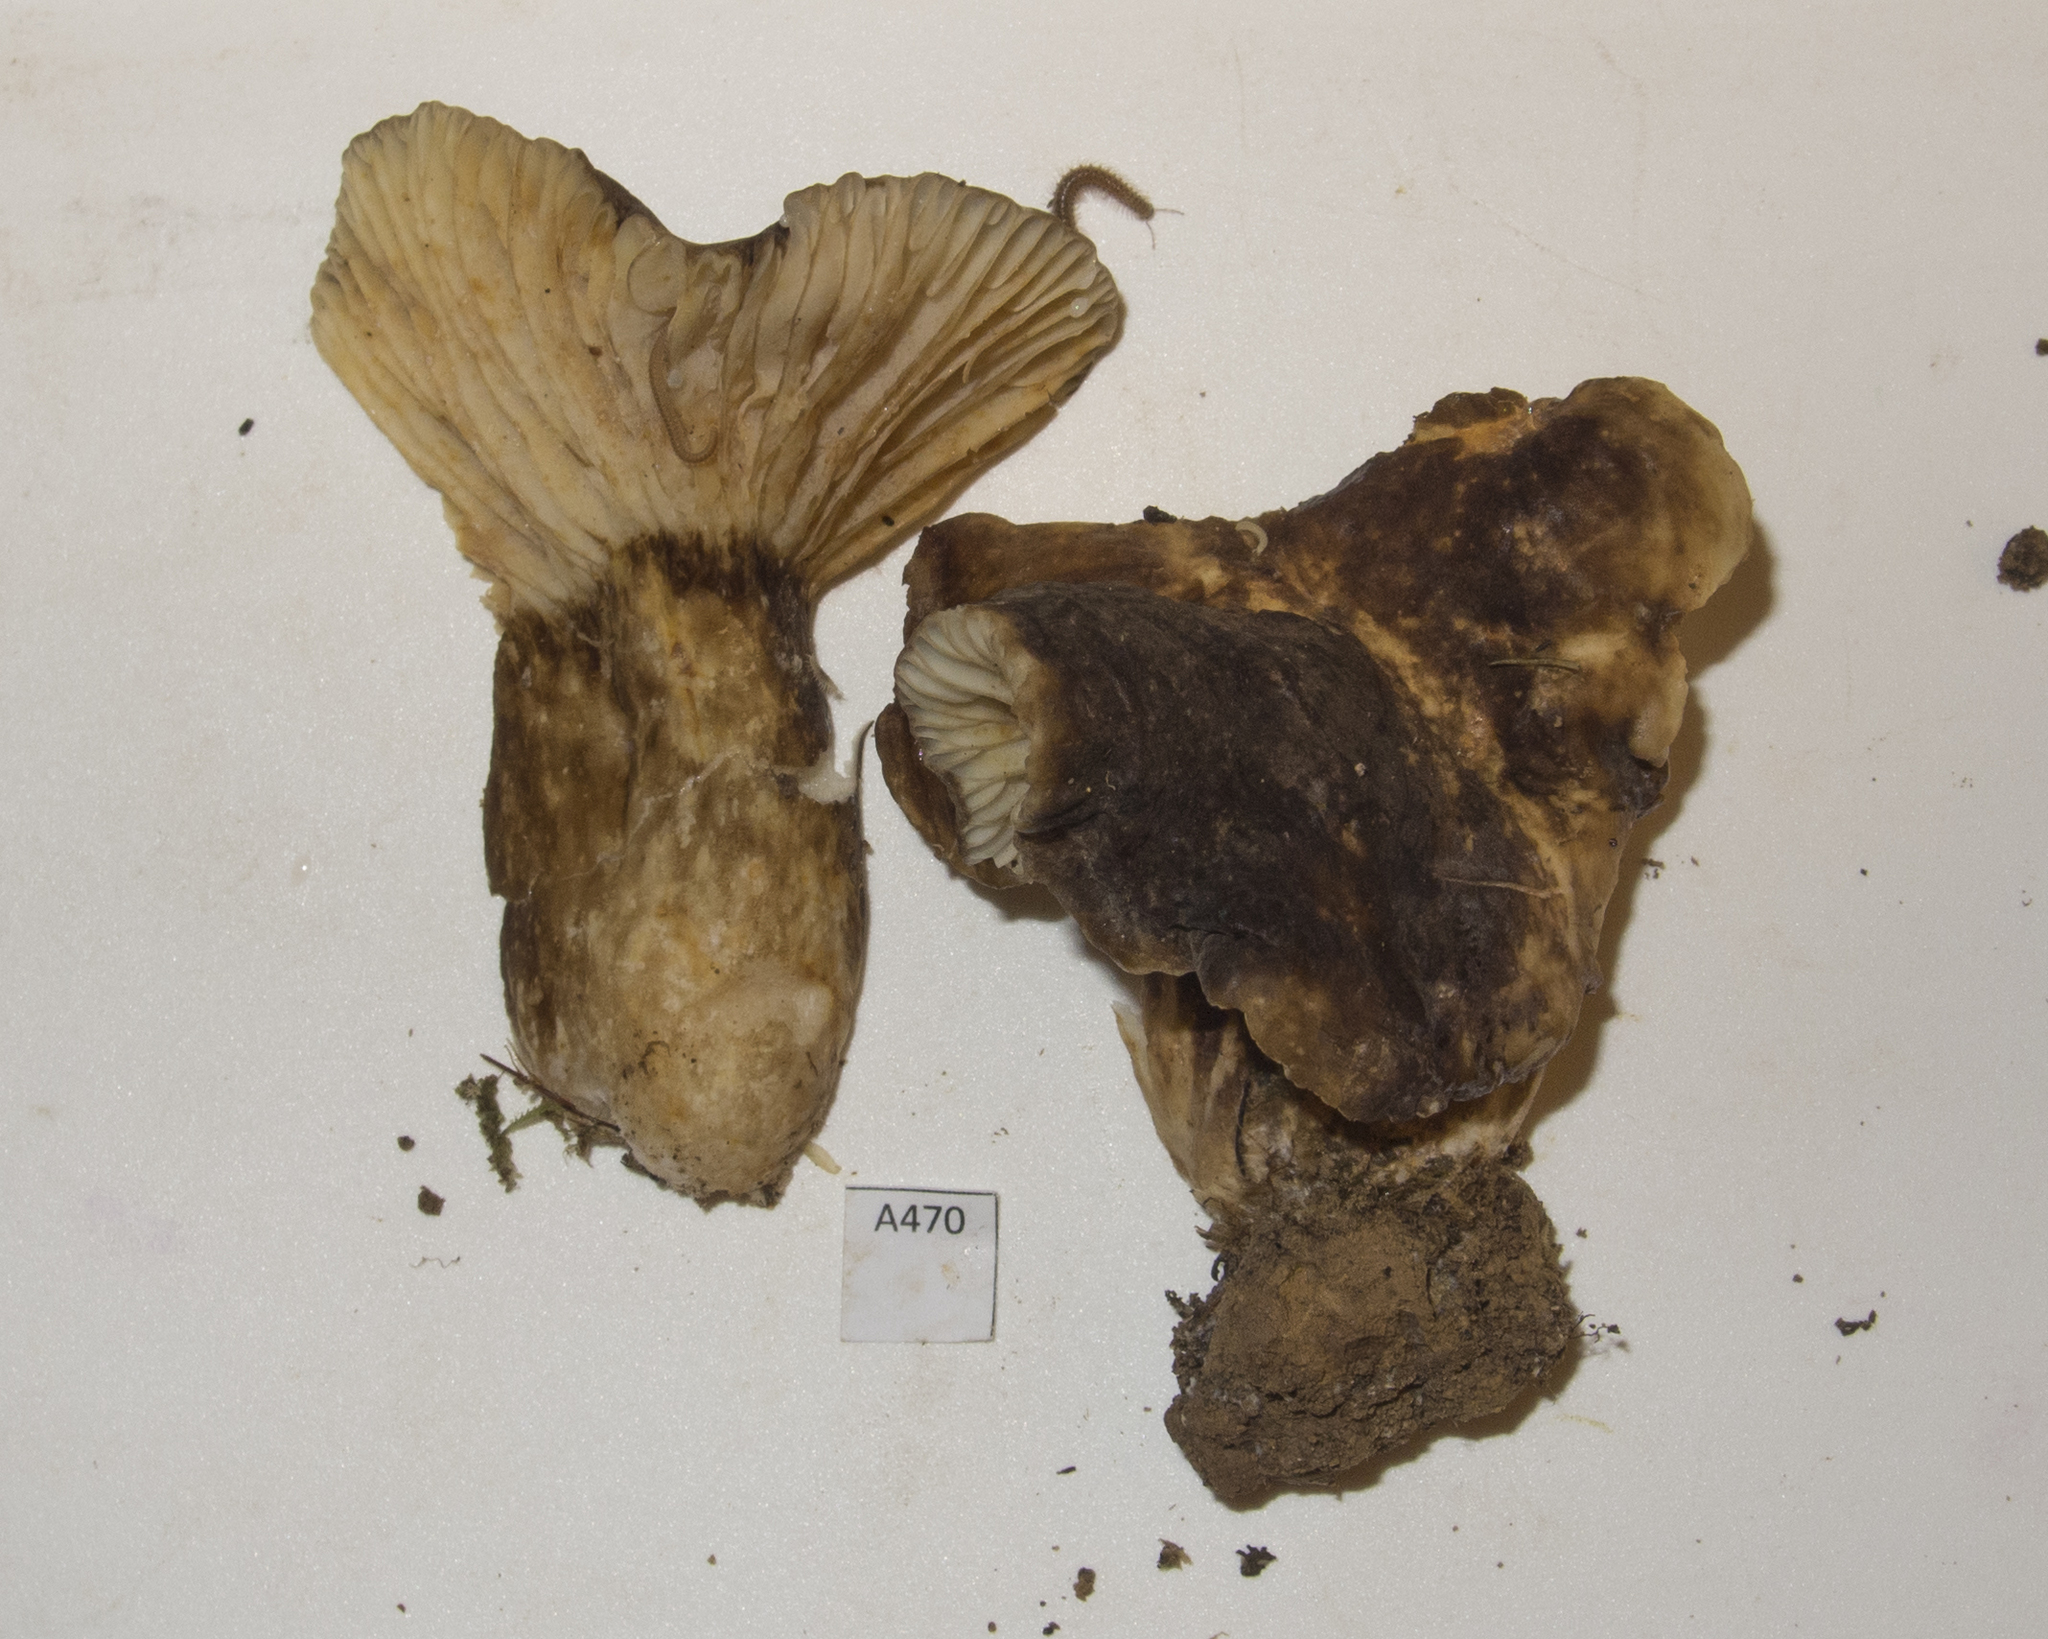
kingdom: Fungi
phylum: Basidiomycota
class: Agaricomycetes
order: Russulales
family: Russulaceae
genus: Lactifluus
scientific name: Lactifluus sepiaceus
